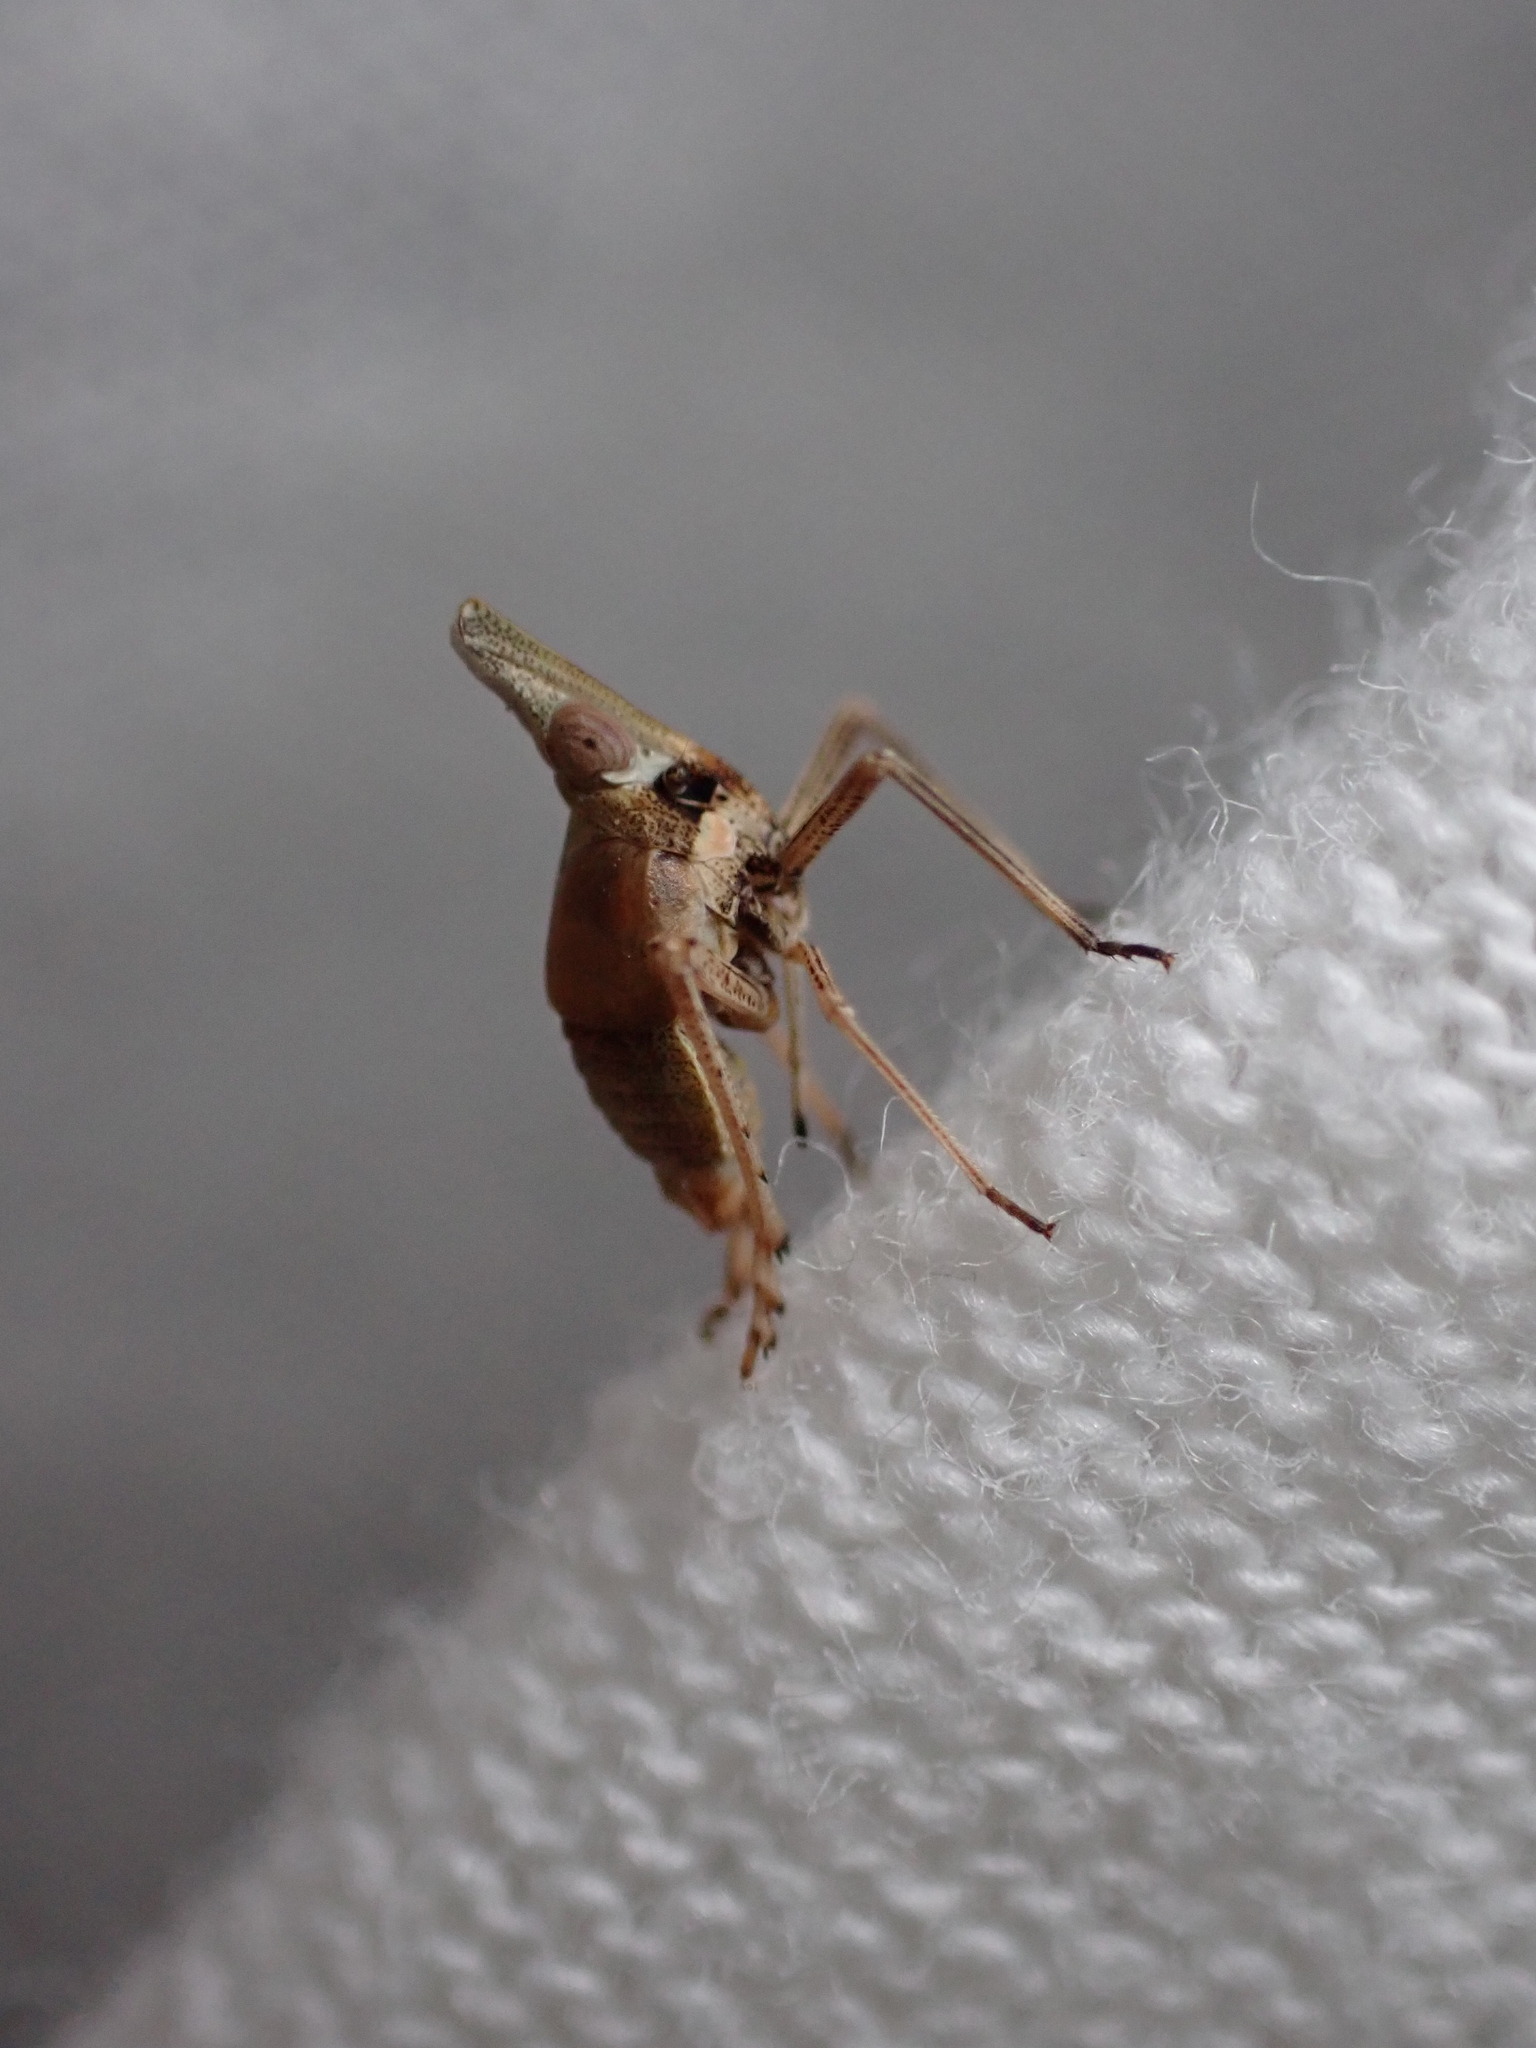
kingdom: Animalia
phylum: Arthropoda
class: Insecta
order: Hemiptera
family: Dictyopharidae
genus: Bursinia
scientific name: Bursinia genei
